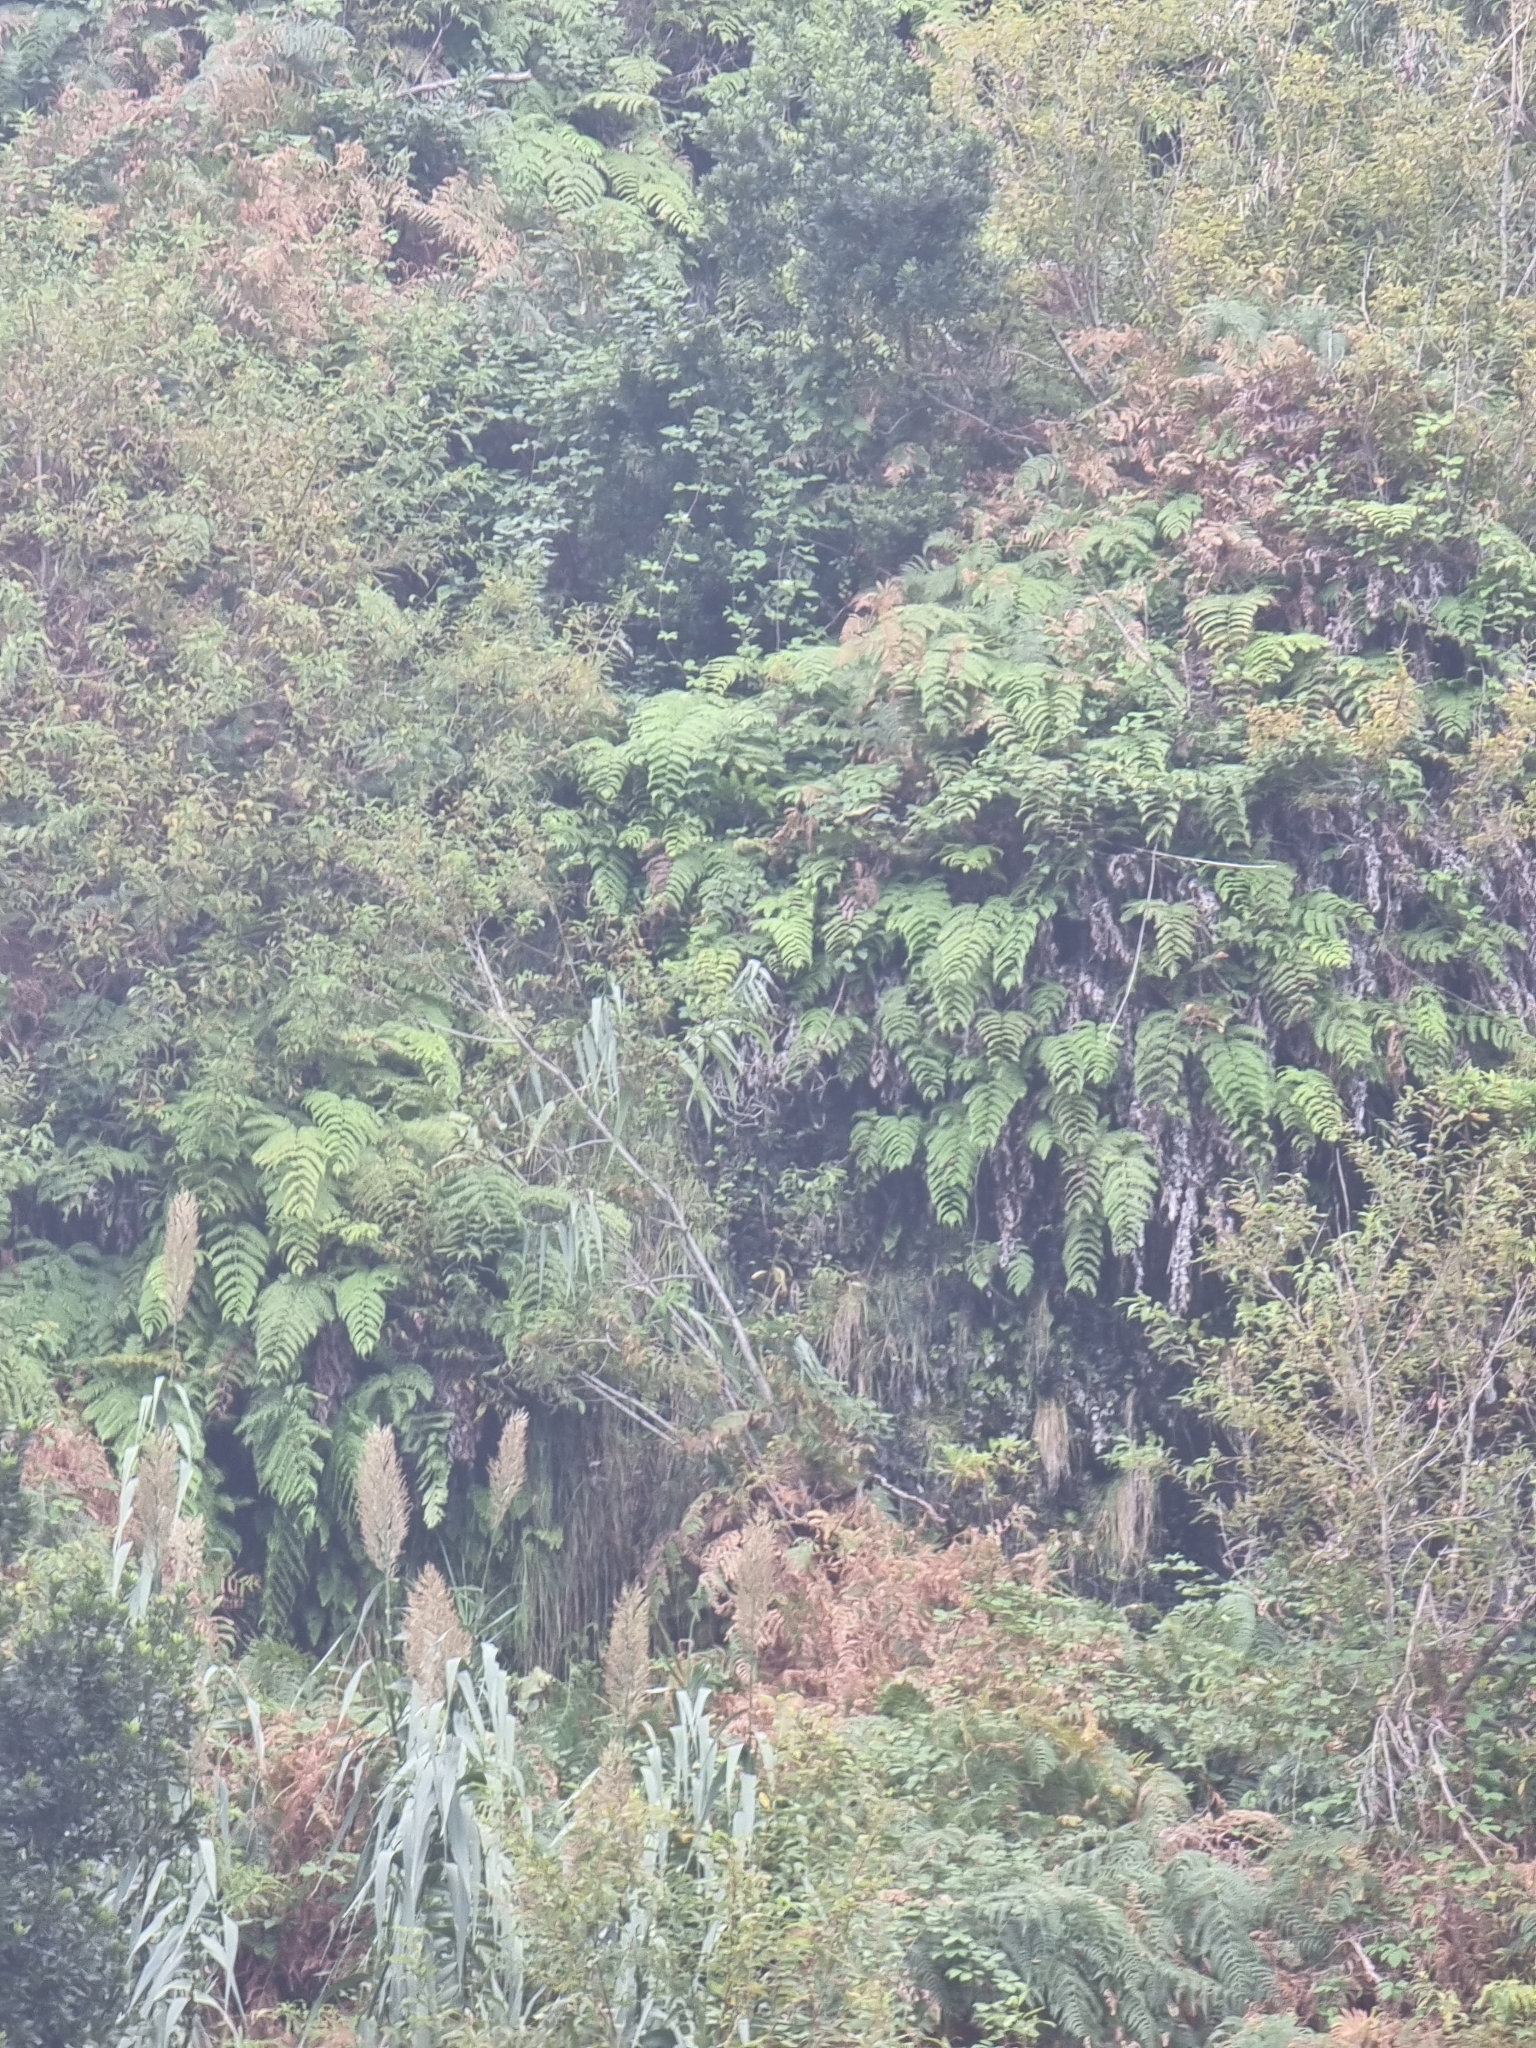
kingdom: Plantae
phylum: Tracheophyta
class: Polypodiopsida
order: Polypodiales
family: Blechnaceae
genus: Woodwardia
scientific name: Woodwardia radicans
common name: Rooting chainfern
